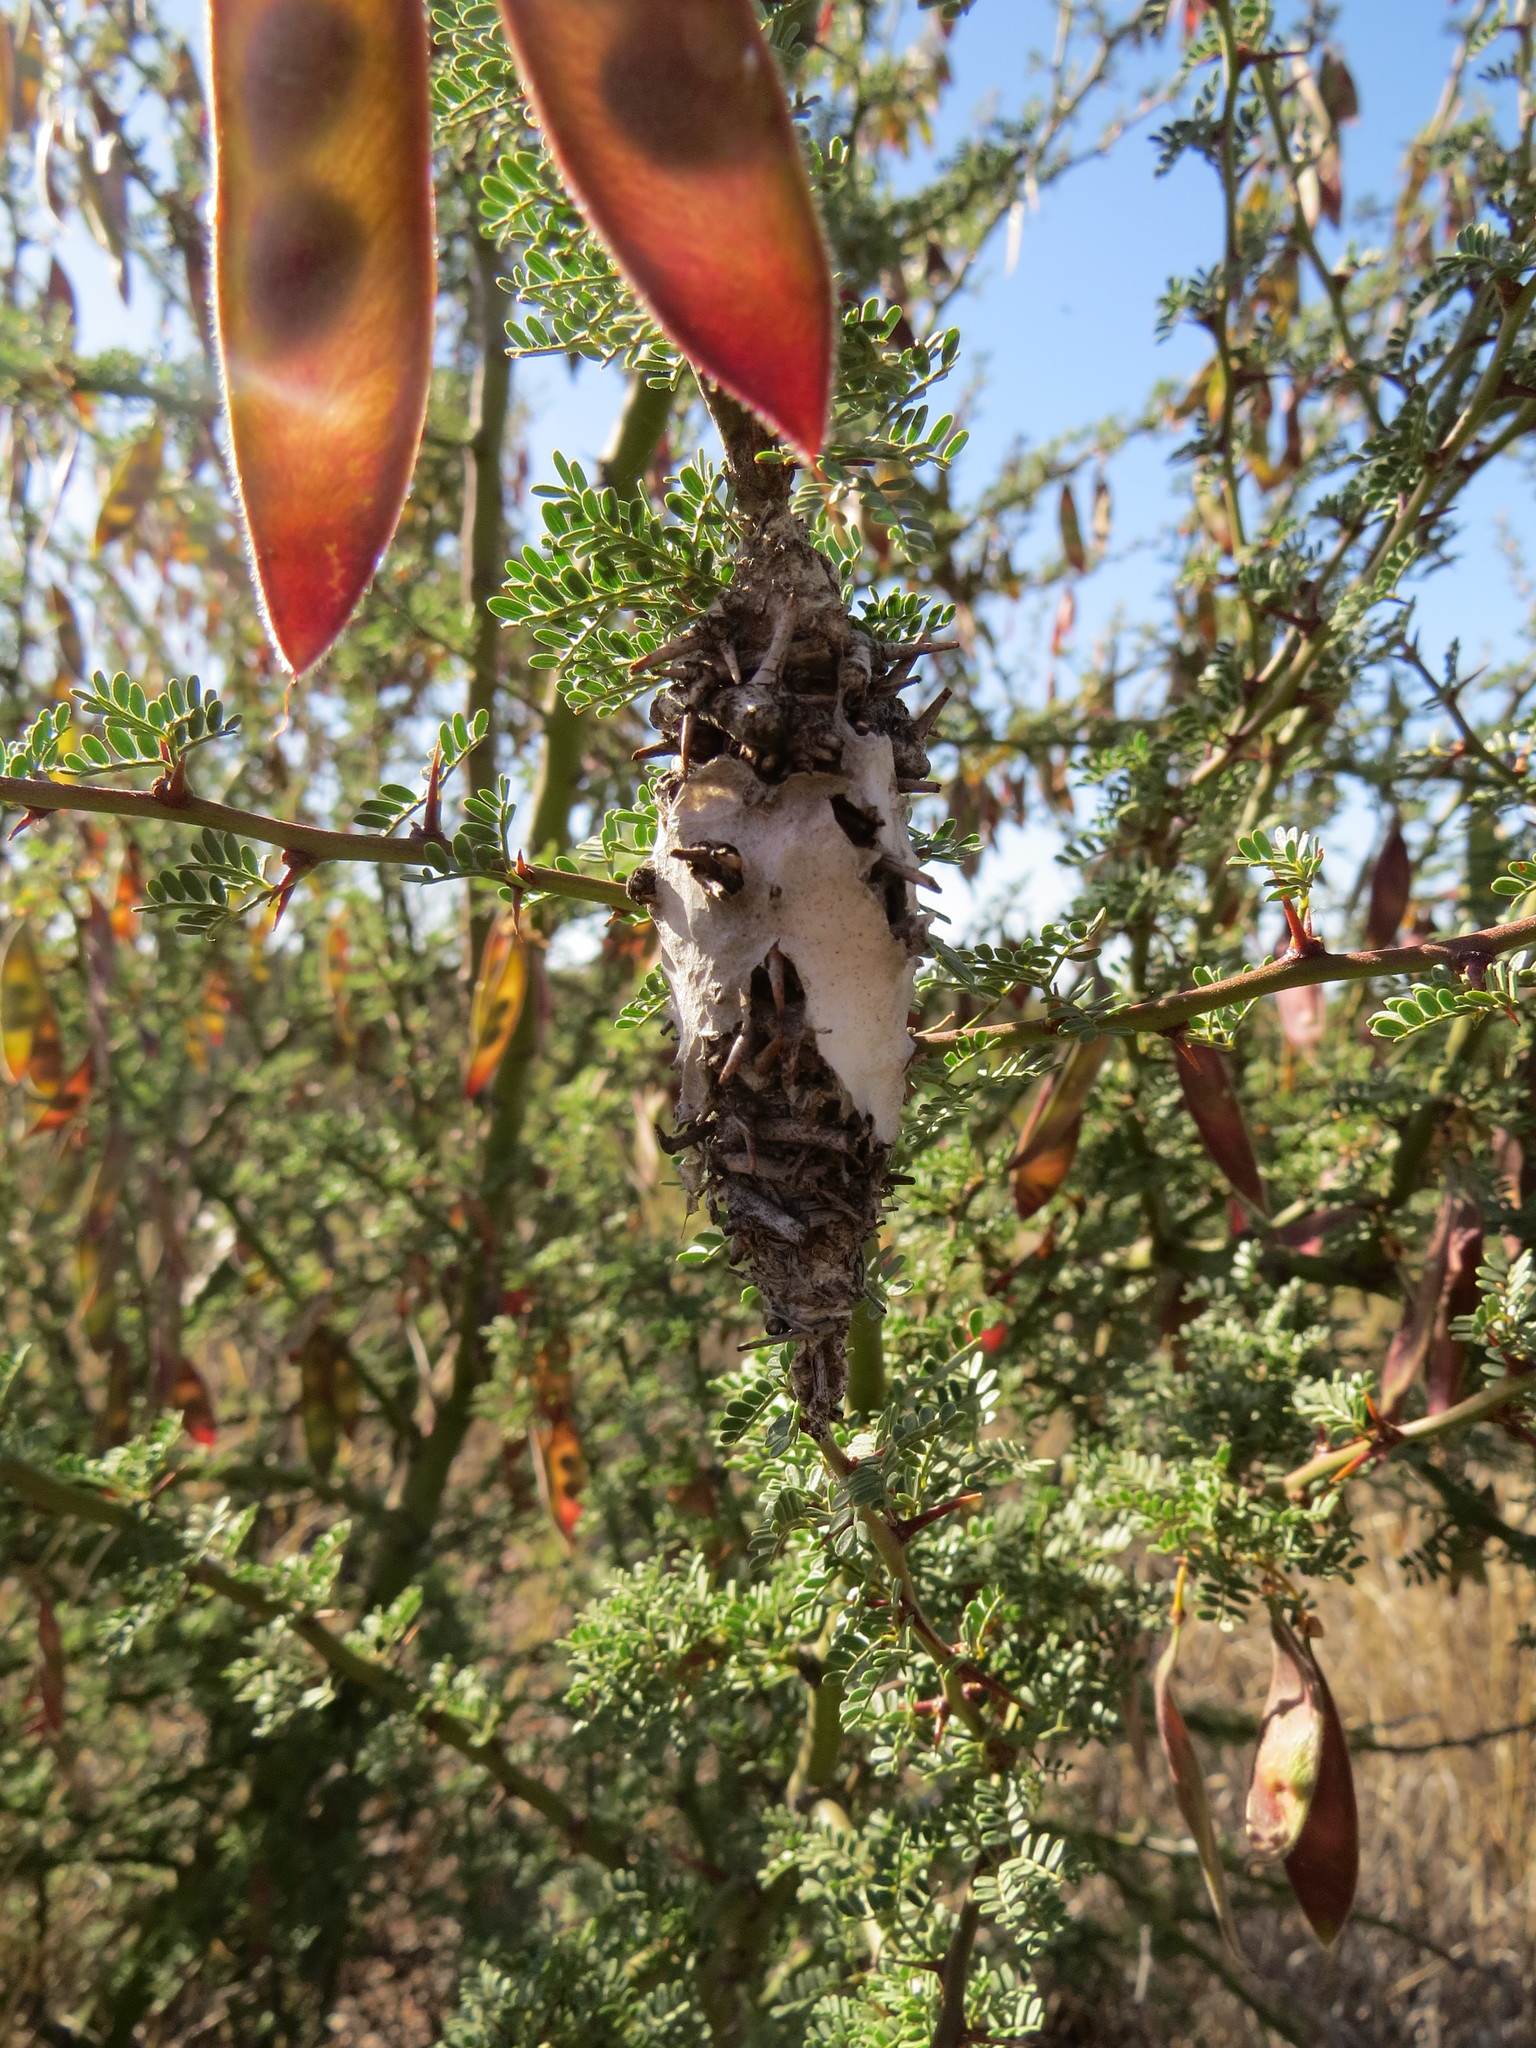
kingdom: Plantae
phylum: Tracheophyta
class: Magnoliopsida
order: Fabales
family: Fabaceae
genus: Parkinsonia
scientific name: Parkinsonia praecox
